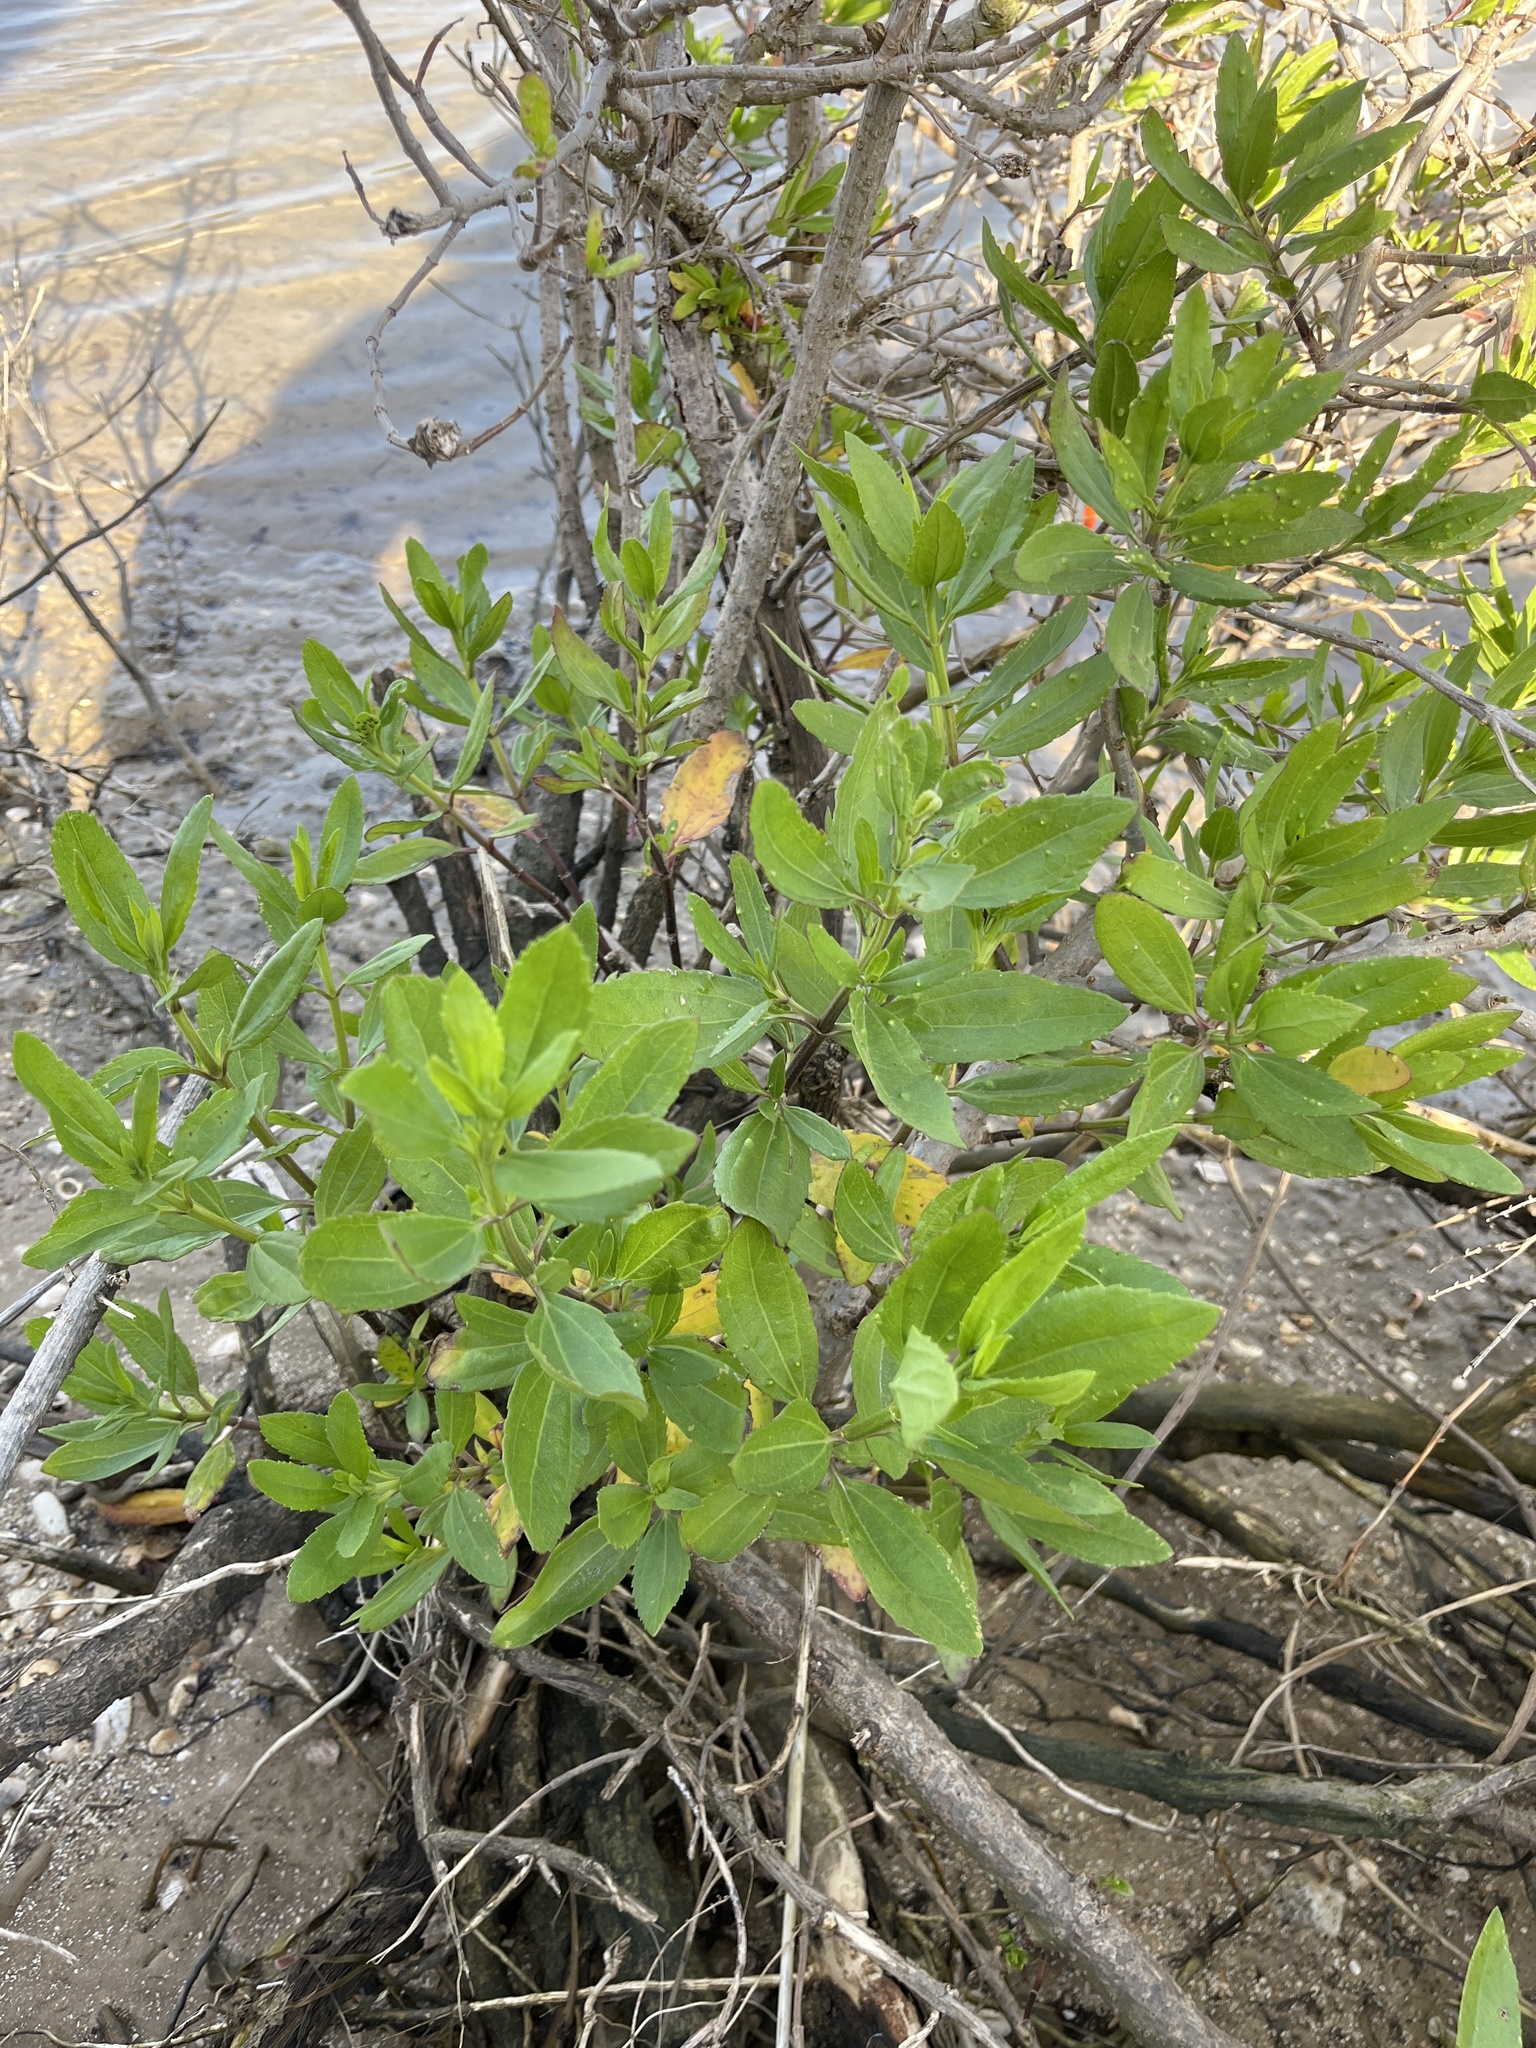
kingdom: Plantae
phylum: Tracheophyta
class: Magnoliopsida
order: Asterales
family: Asteraceae
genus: Iva
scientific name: Iva frutescens
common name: Big-leaved marsh-elder
